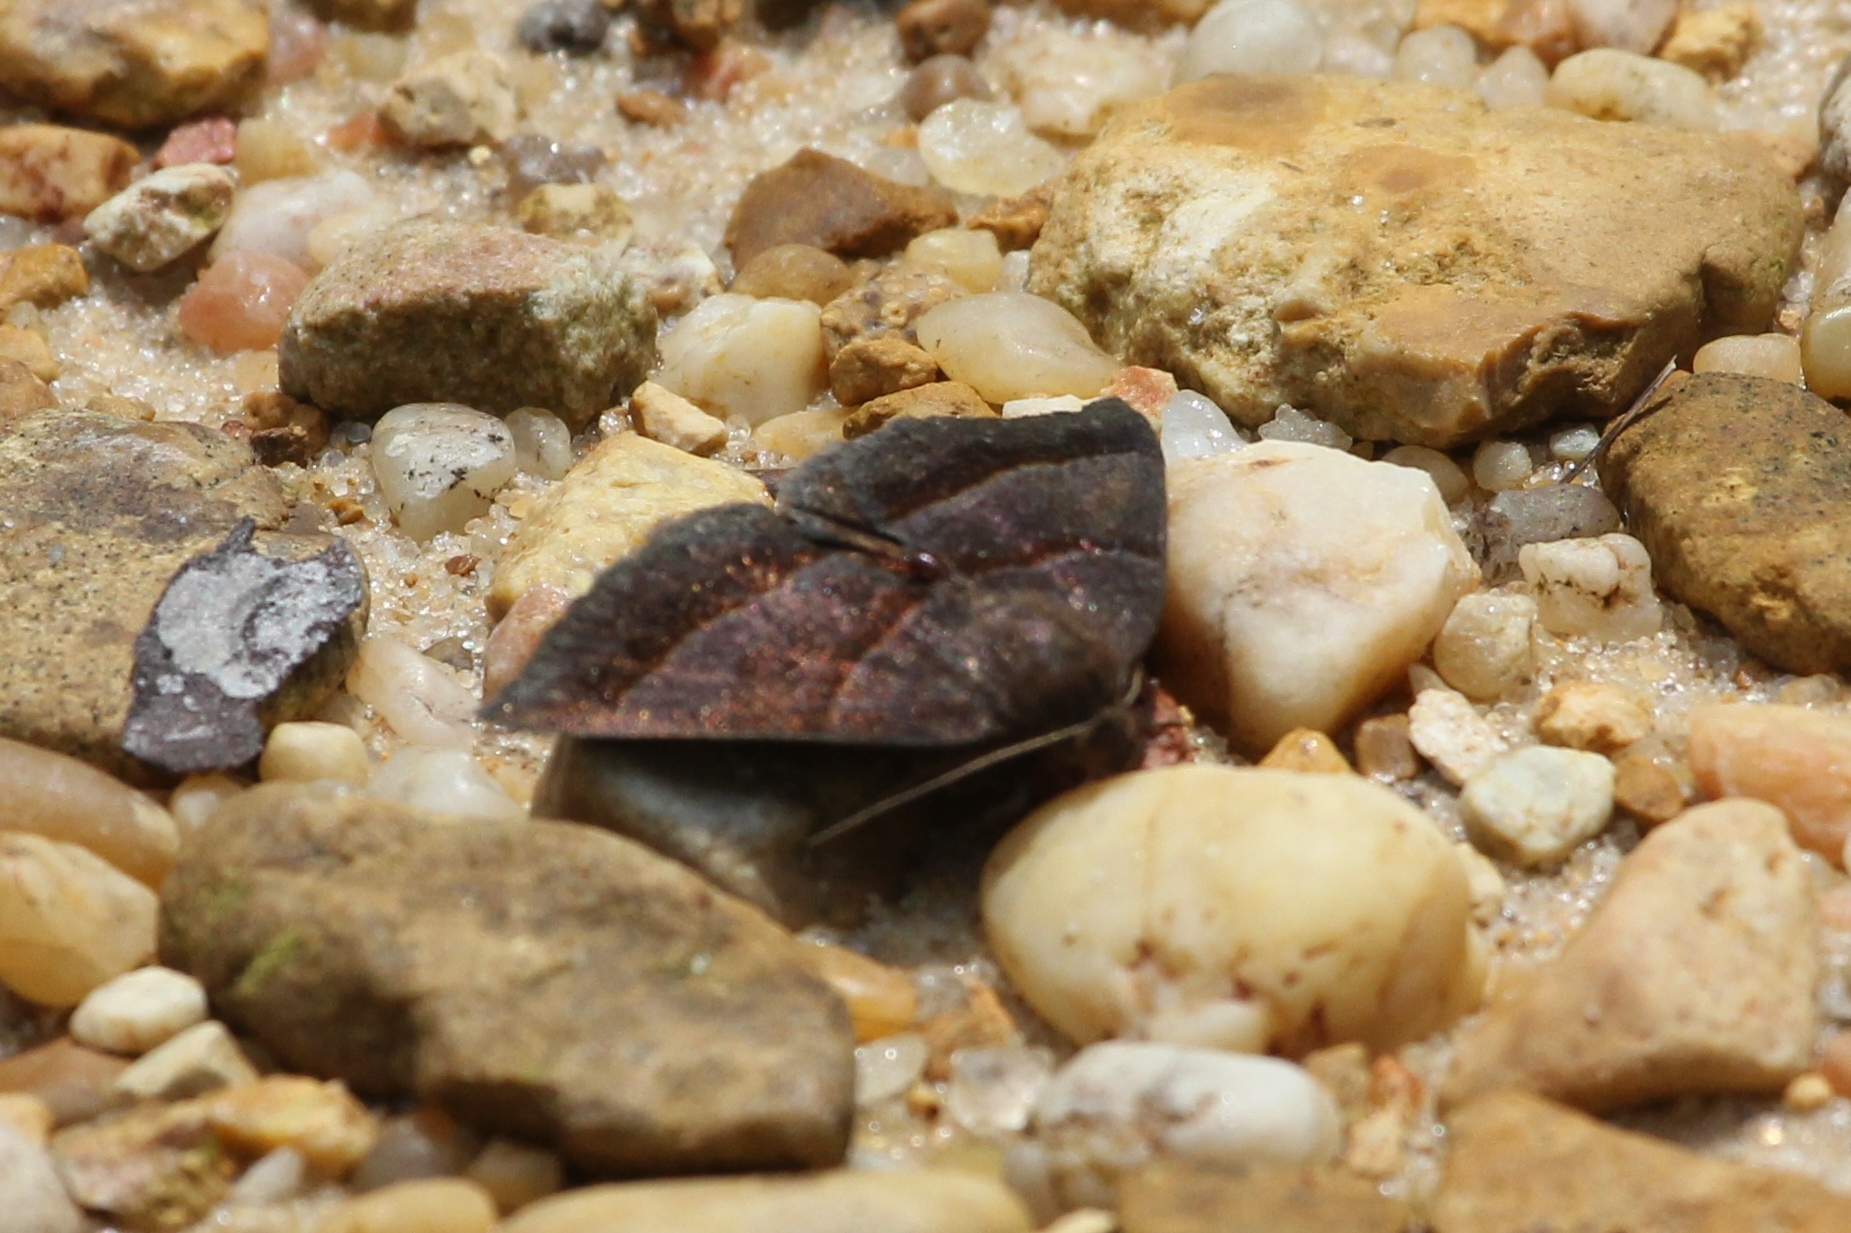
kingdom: Animalia
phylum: Arthropoda
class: Insecta
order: Lepidoptera
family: Erebidae
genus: Argyrostrotis
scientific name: Argyrostrotis sylvarum
